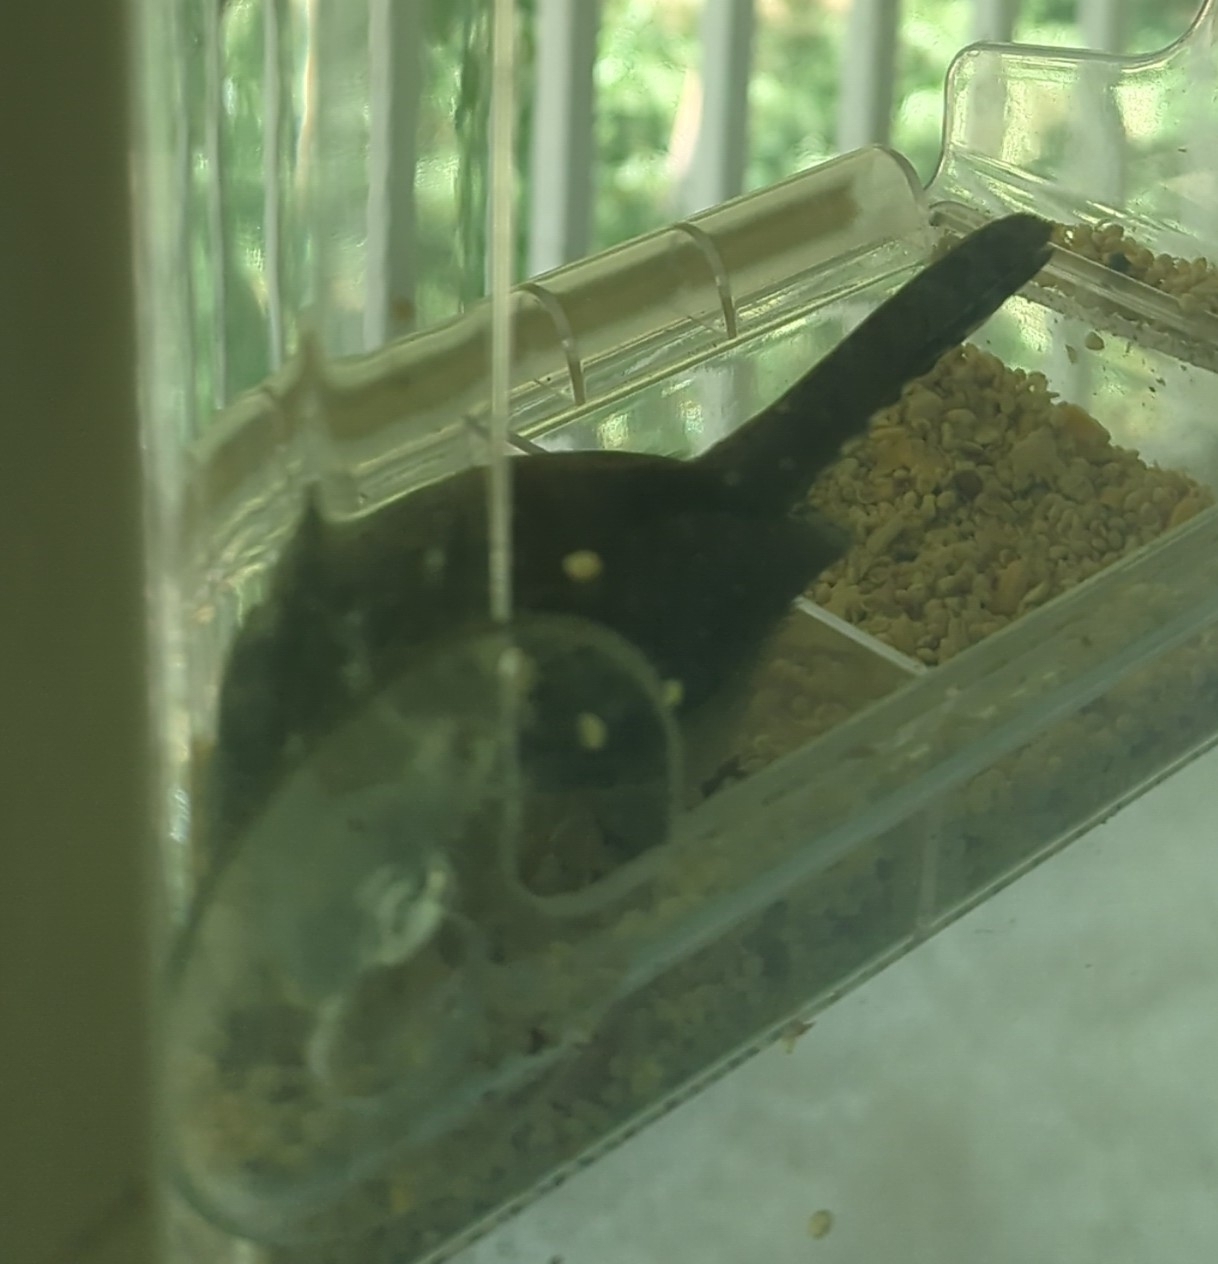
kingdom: Animalia
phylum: Chordata
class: Aves
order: Passeriformes
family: Troglodytidae
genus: Thryothorus
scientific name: Thryothorus ludovicianus
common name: Carolina wren
